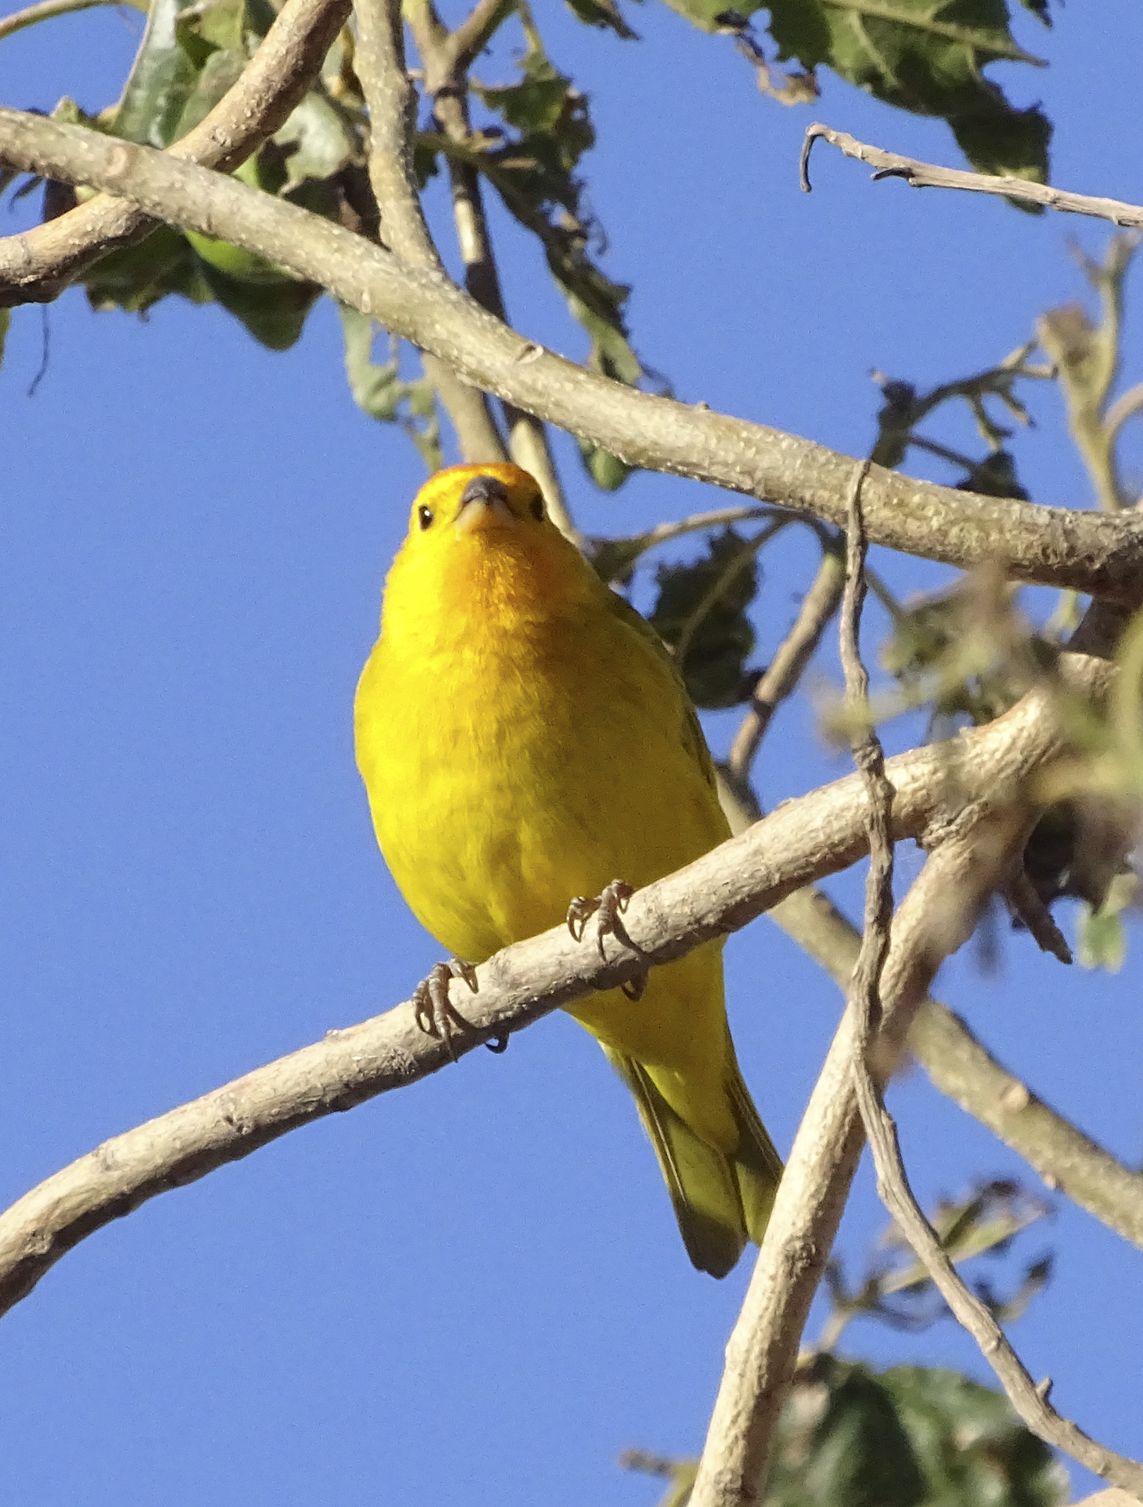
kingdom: Animalia
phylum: Chordata
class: Aves
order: Passeriformes
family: Thraupidae
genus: Sicalis
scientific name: Sicalis flaveola
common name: Saffron finch
